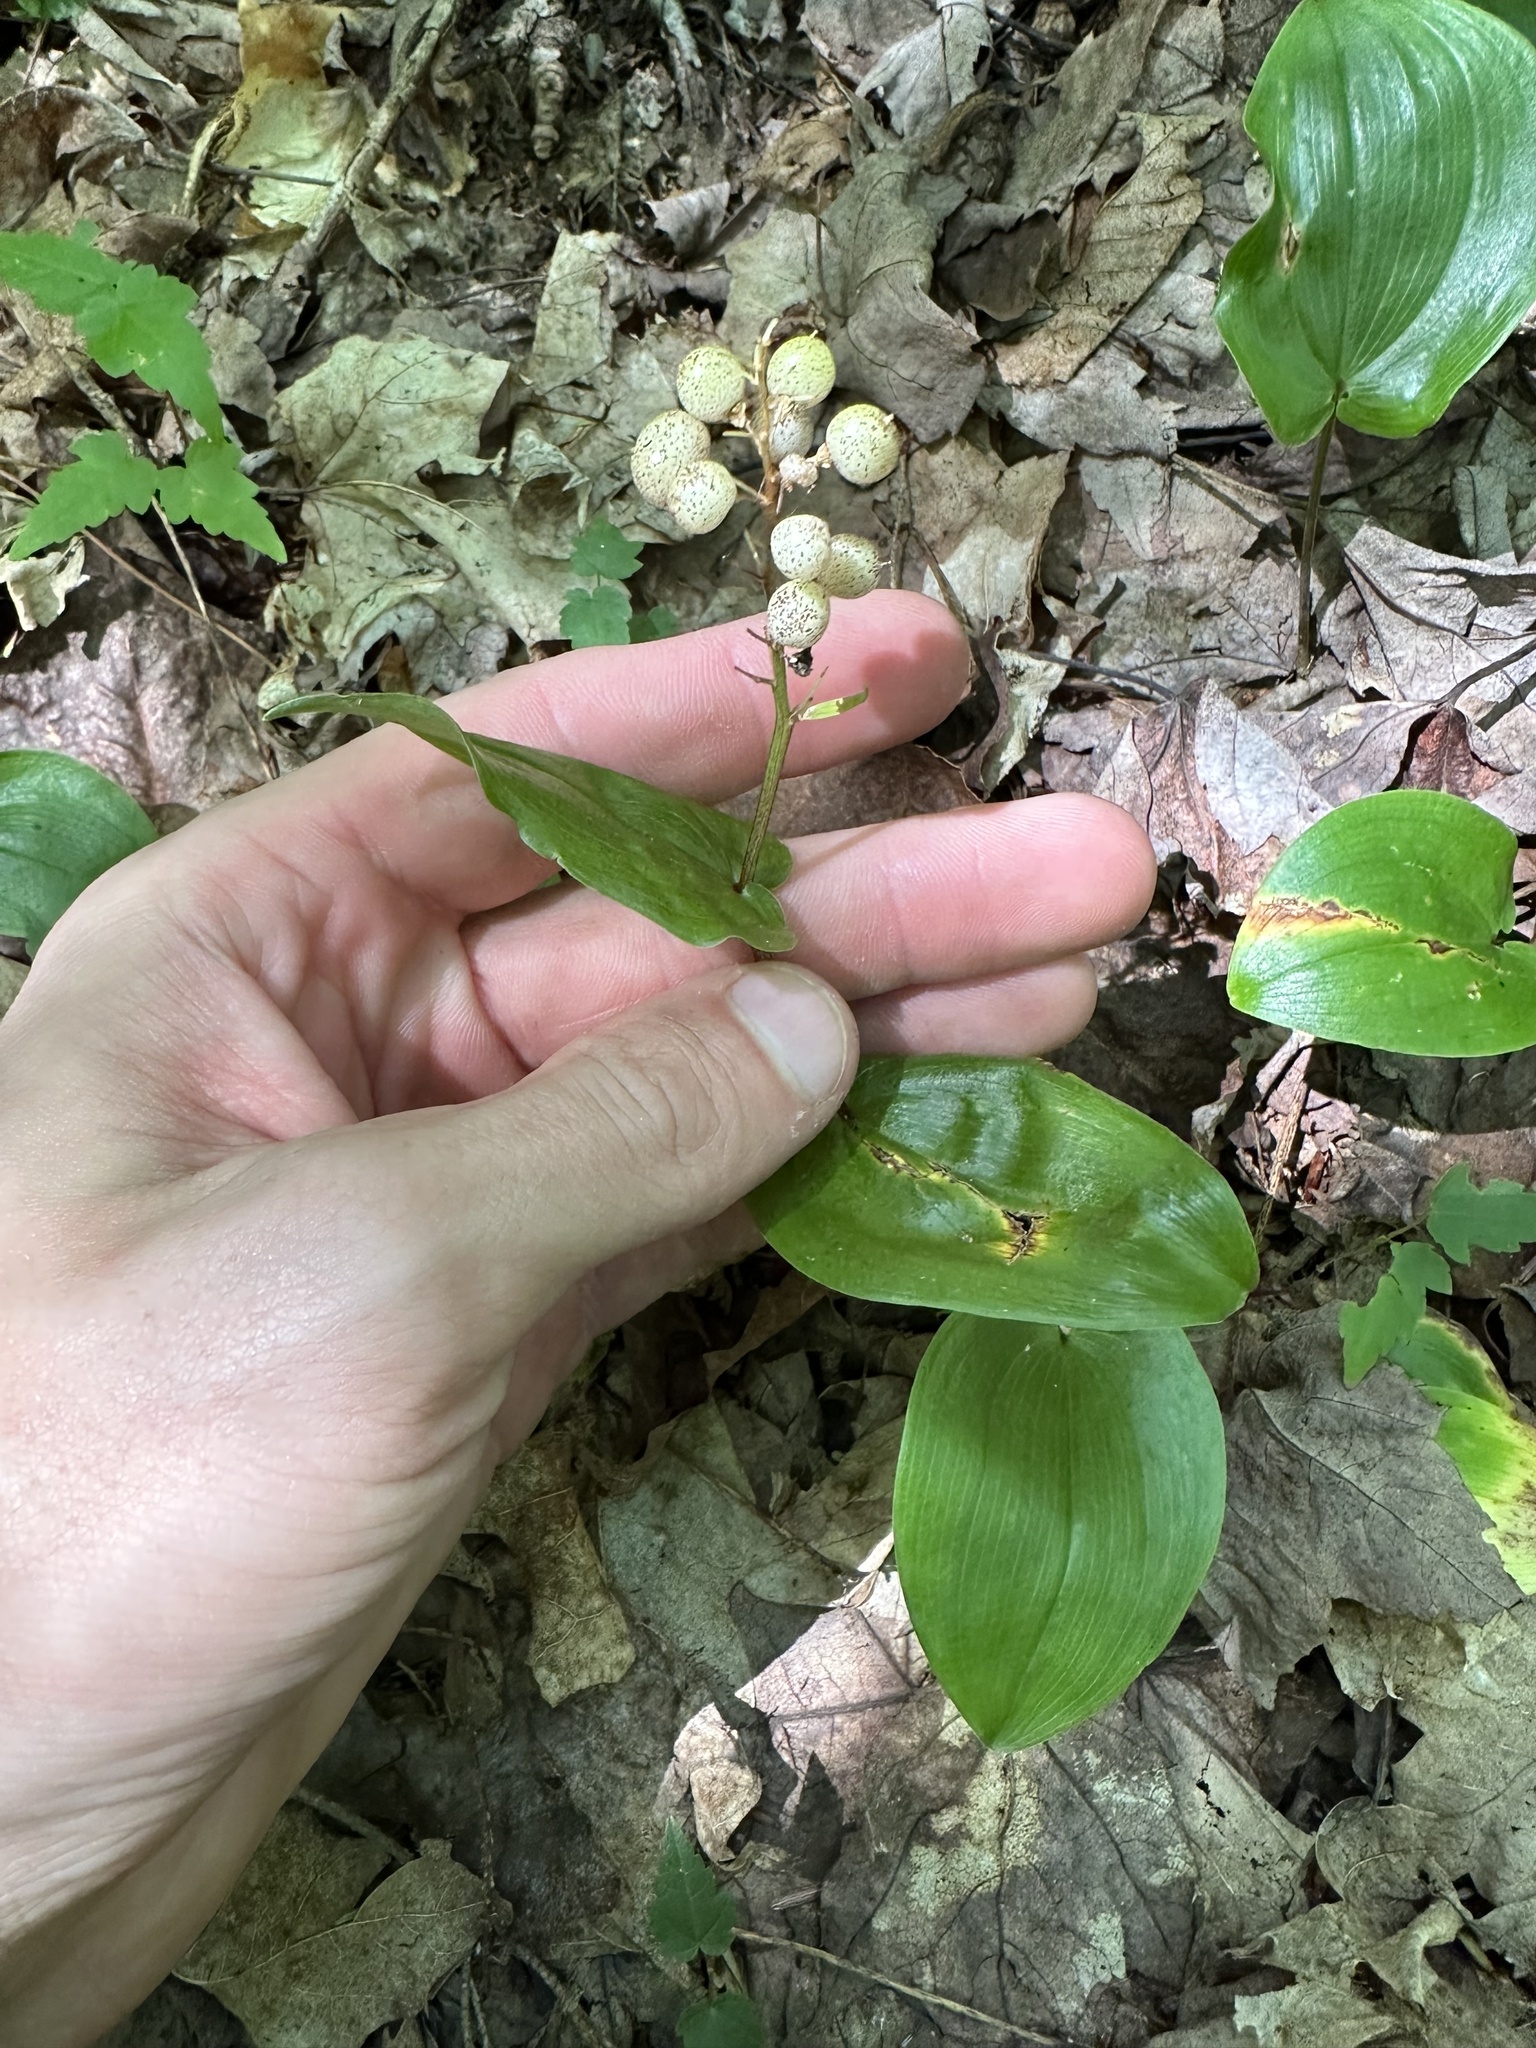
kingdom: Plantae
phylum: Tracheophyta
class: Liliopsida
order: Asparagales
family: Asparagaceae
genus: Maianthemum
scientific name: Maianthemum canadense
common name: False lily-of-the-valley
